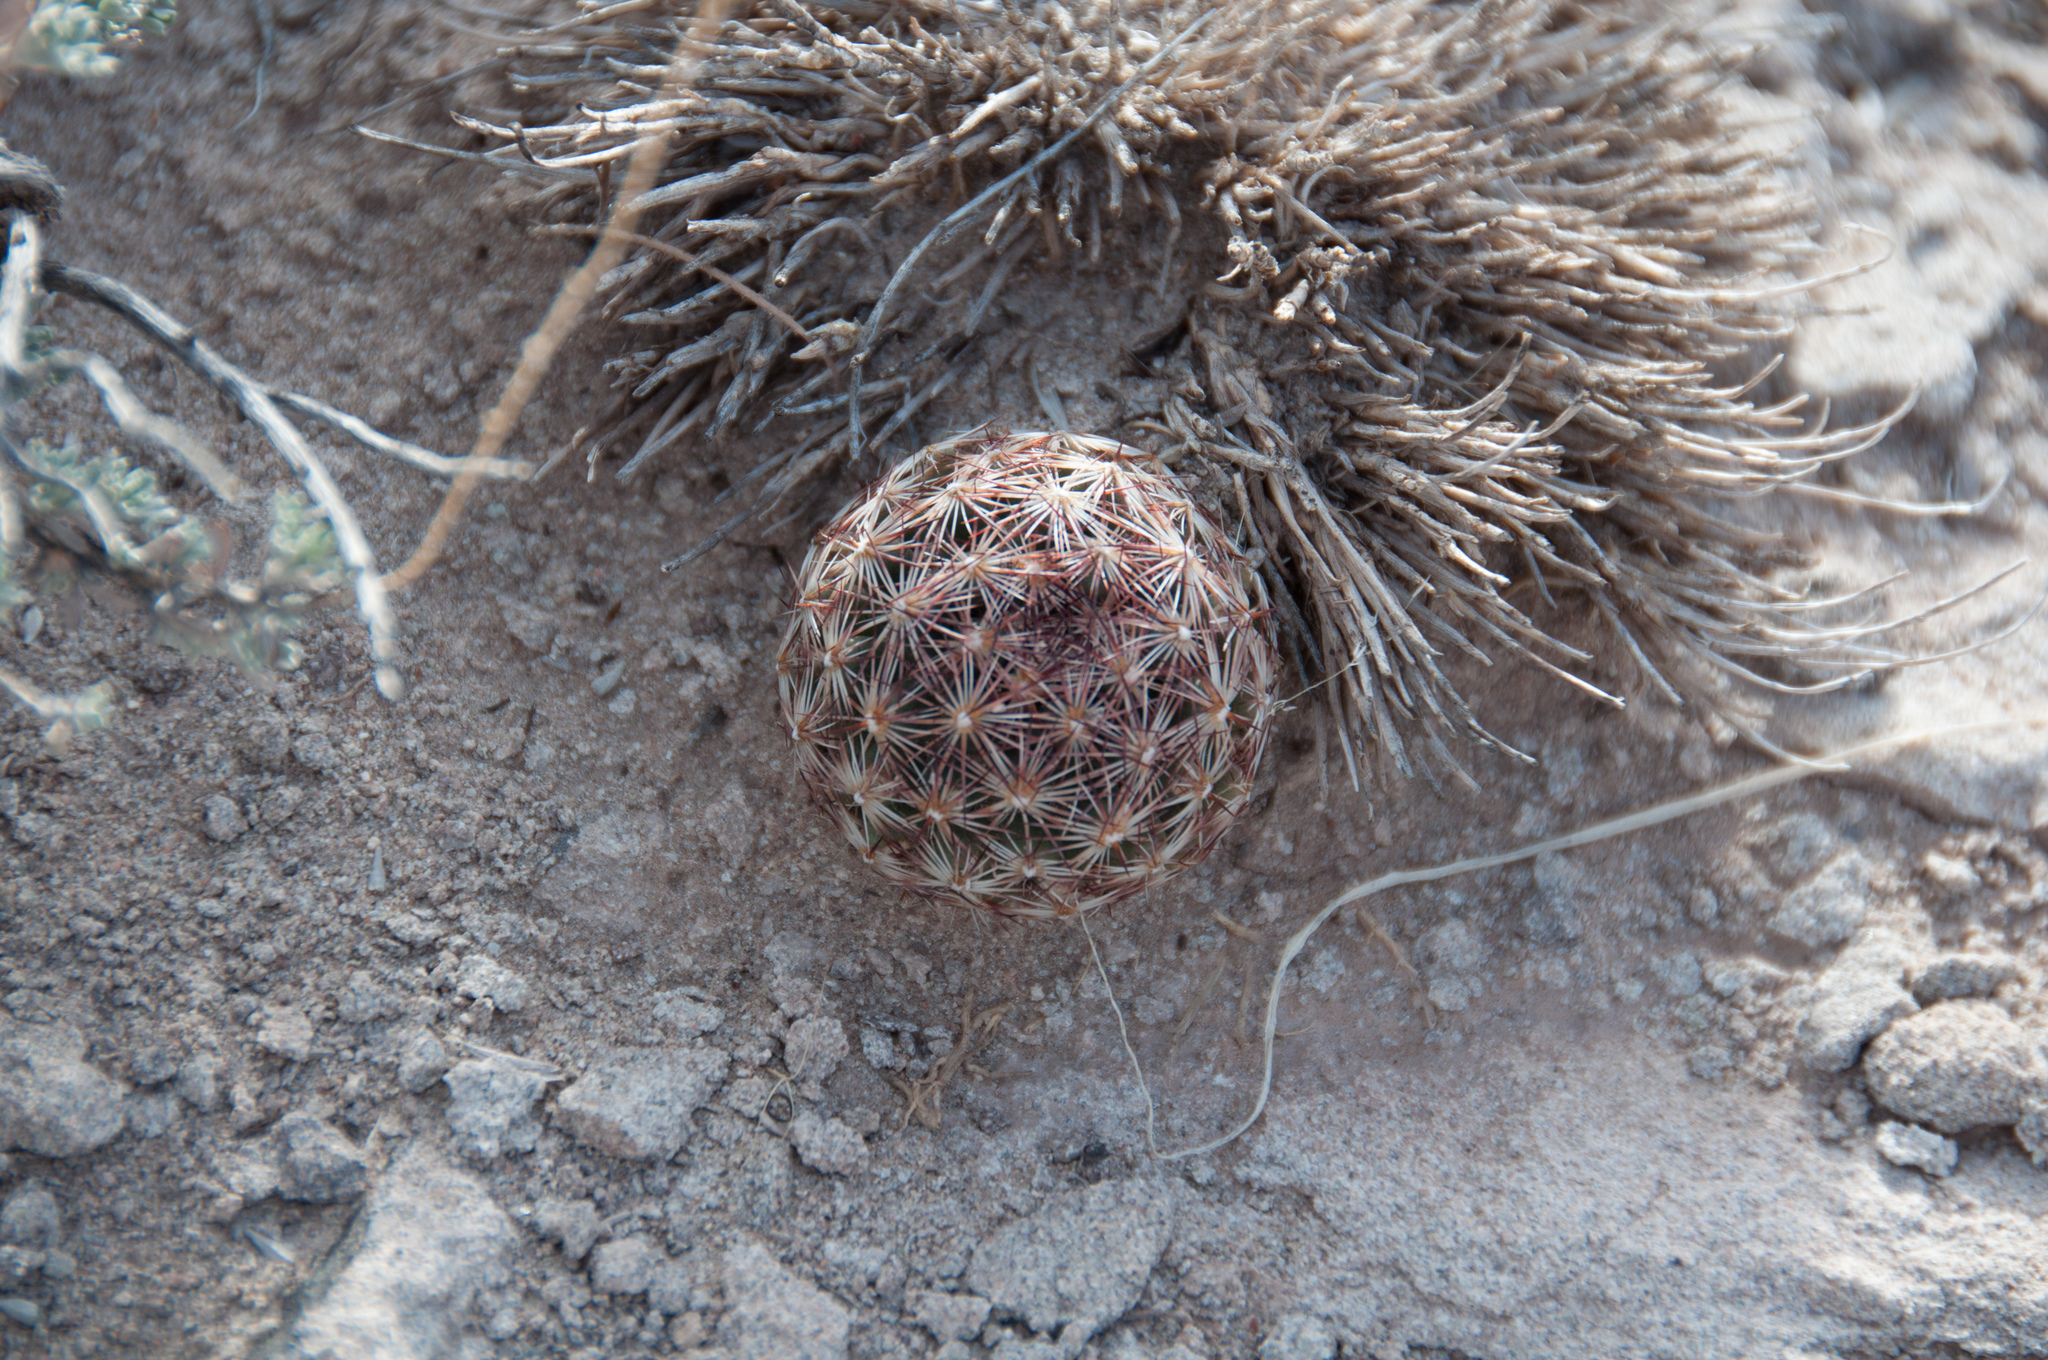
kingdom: Plantae
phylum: Tracheophyta
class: Magnoliopsida
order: Caryophyllales
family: Cactaceae
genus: Pelecyphora
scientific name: Pelecyphora vivipara
